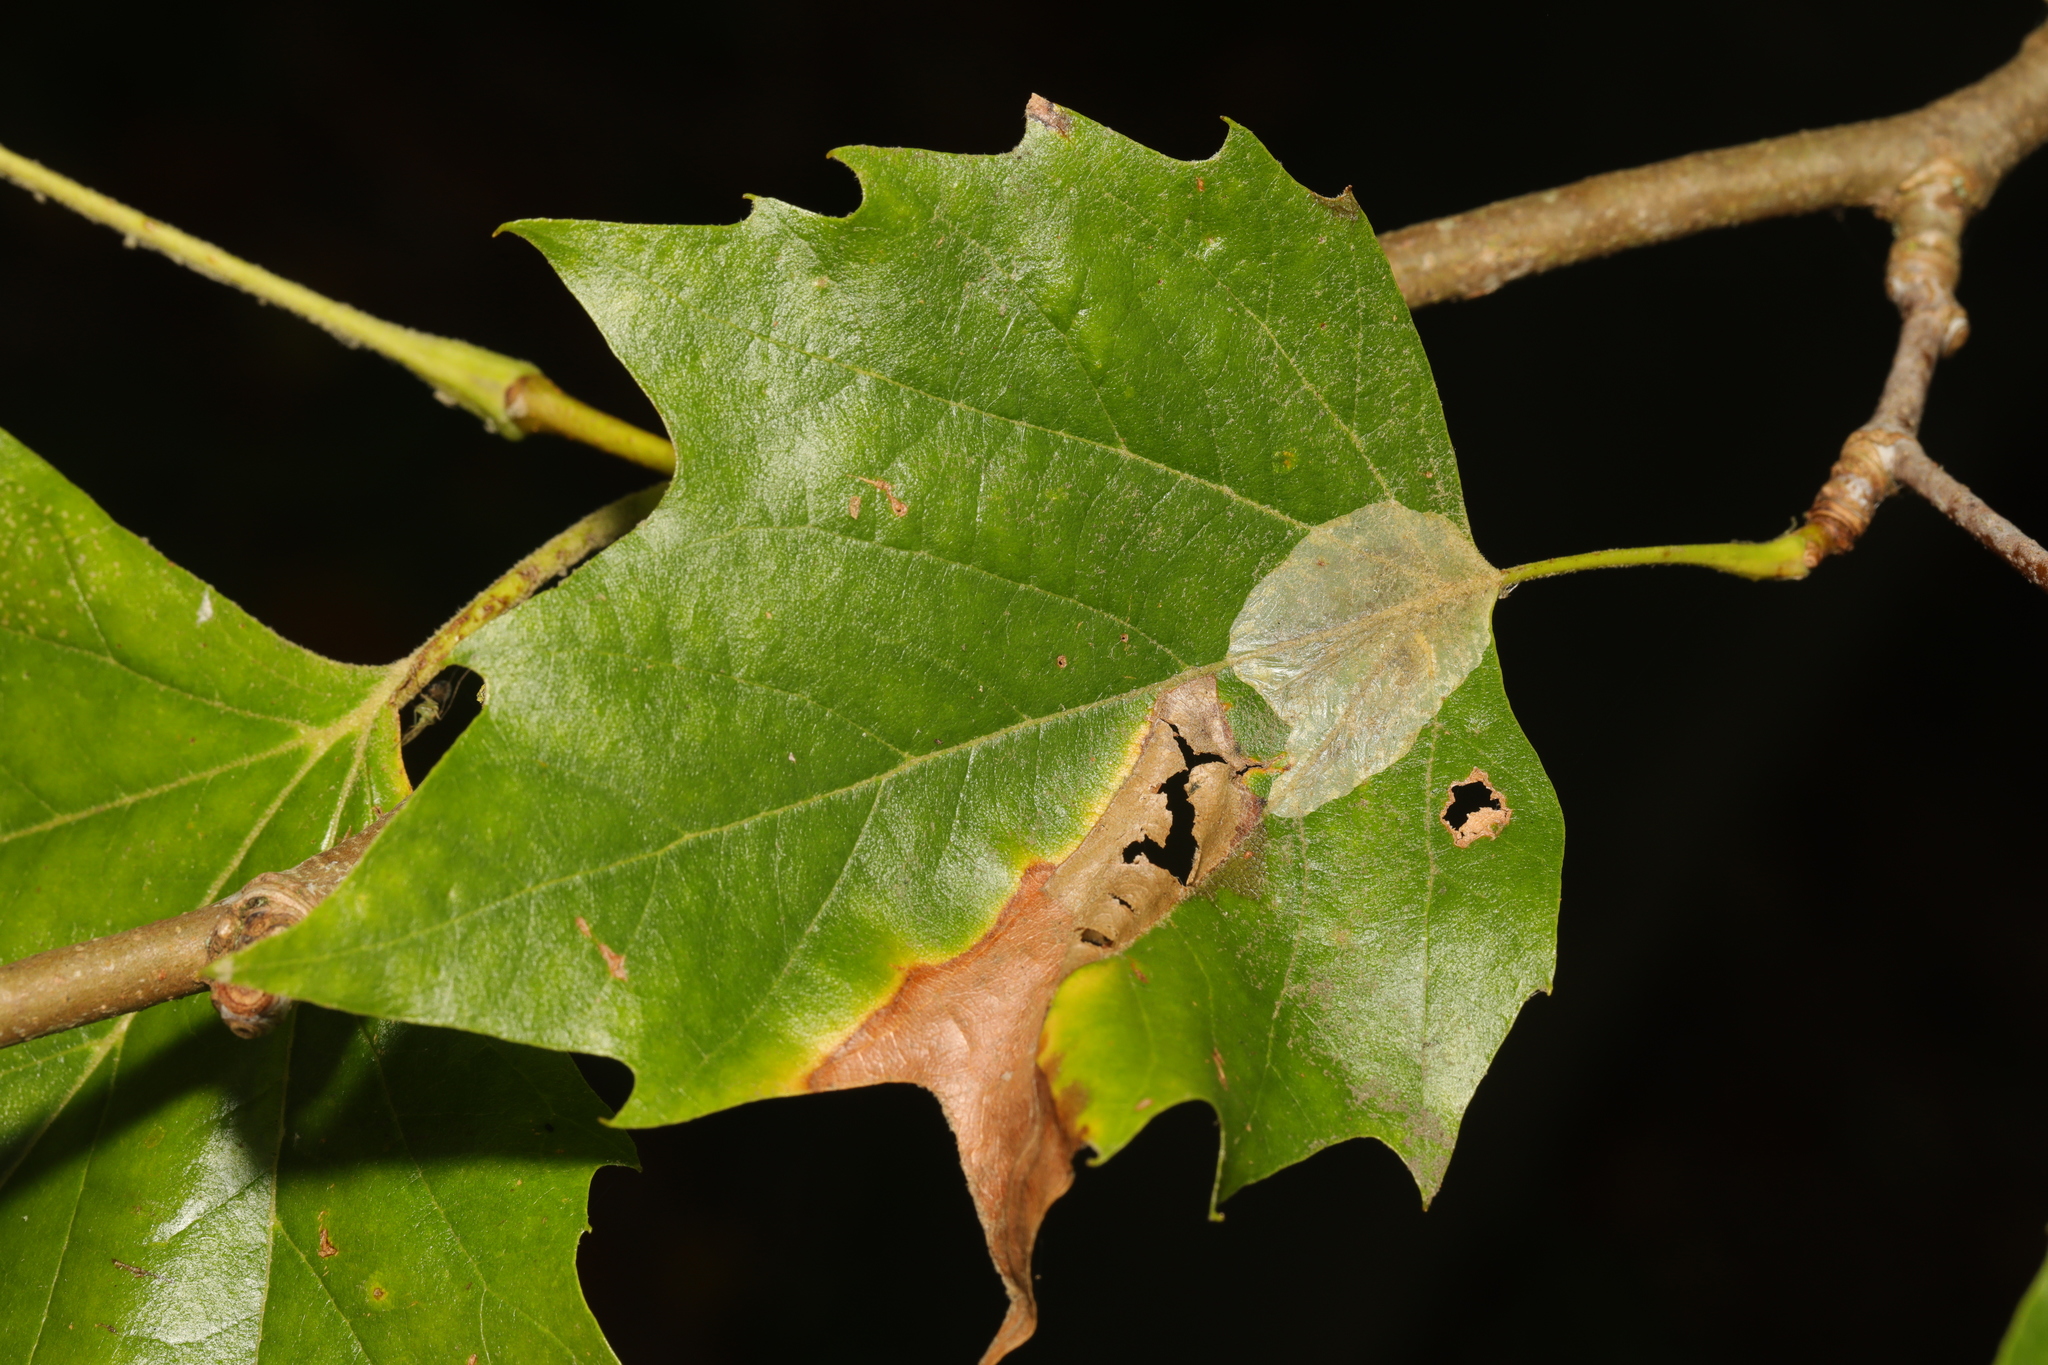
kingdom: Animalia
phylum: Arthropoda
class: Insecta
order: Lepidoptera
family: Gracillariidae
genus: Phyllonorycter
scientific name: Phyllonorycter platani
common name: London midget
